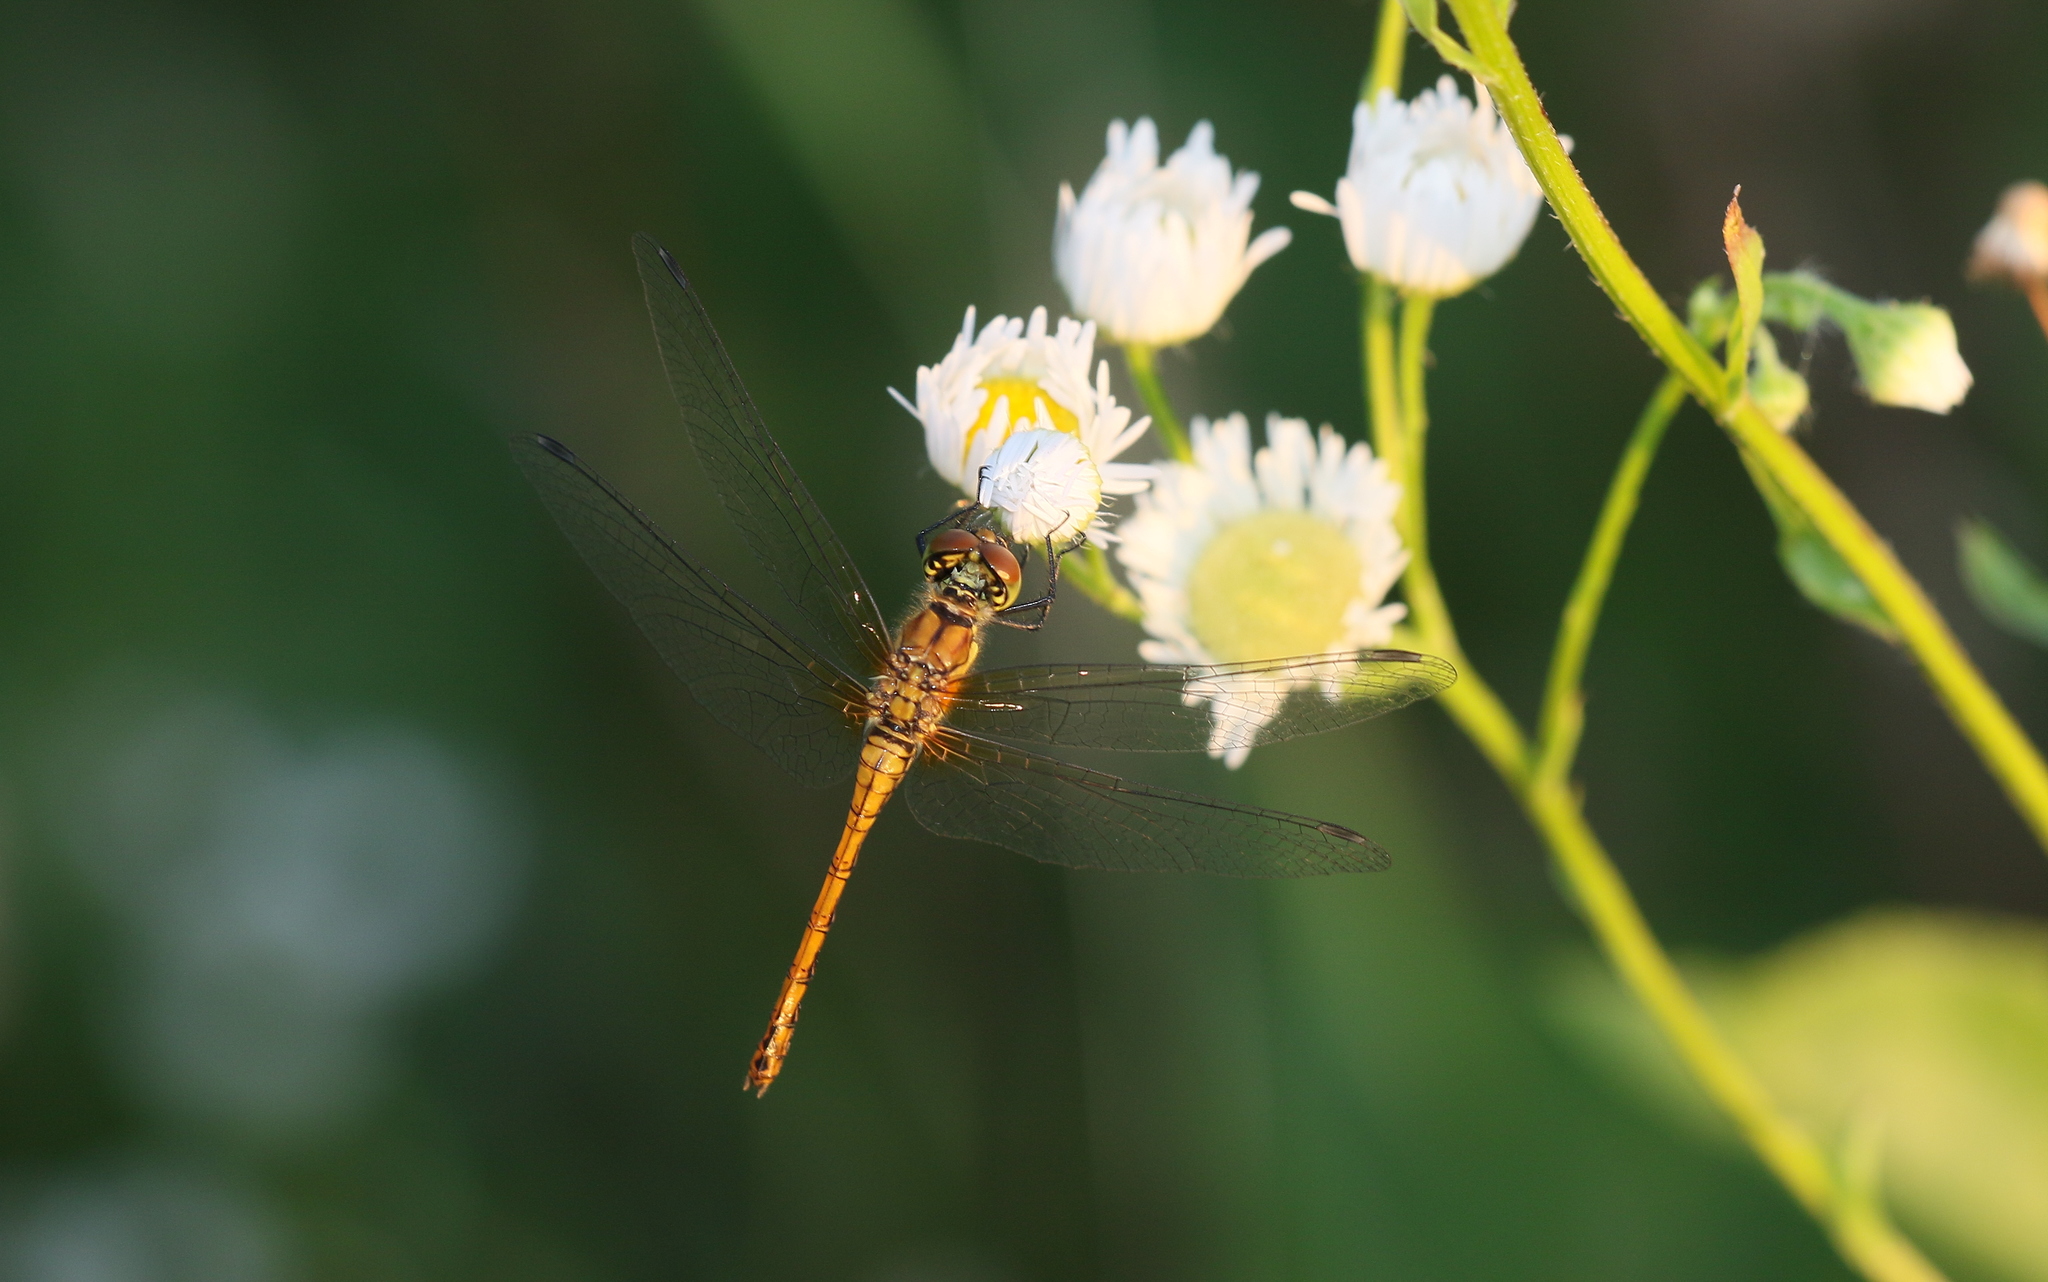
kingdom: Animalia
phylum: Arthropoda
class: Insecta
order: Odonata
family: Libellulidae
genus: Sympetrum
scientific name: Sympetrum sanguineum
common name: Ruddy darter
